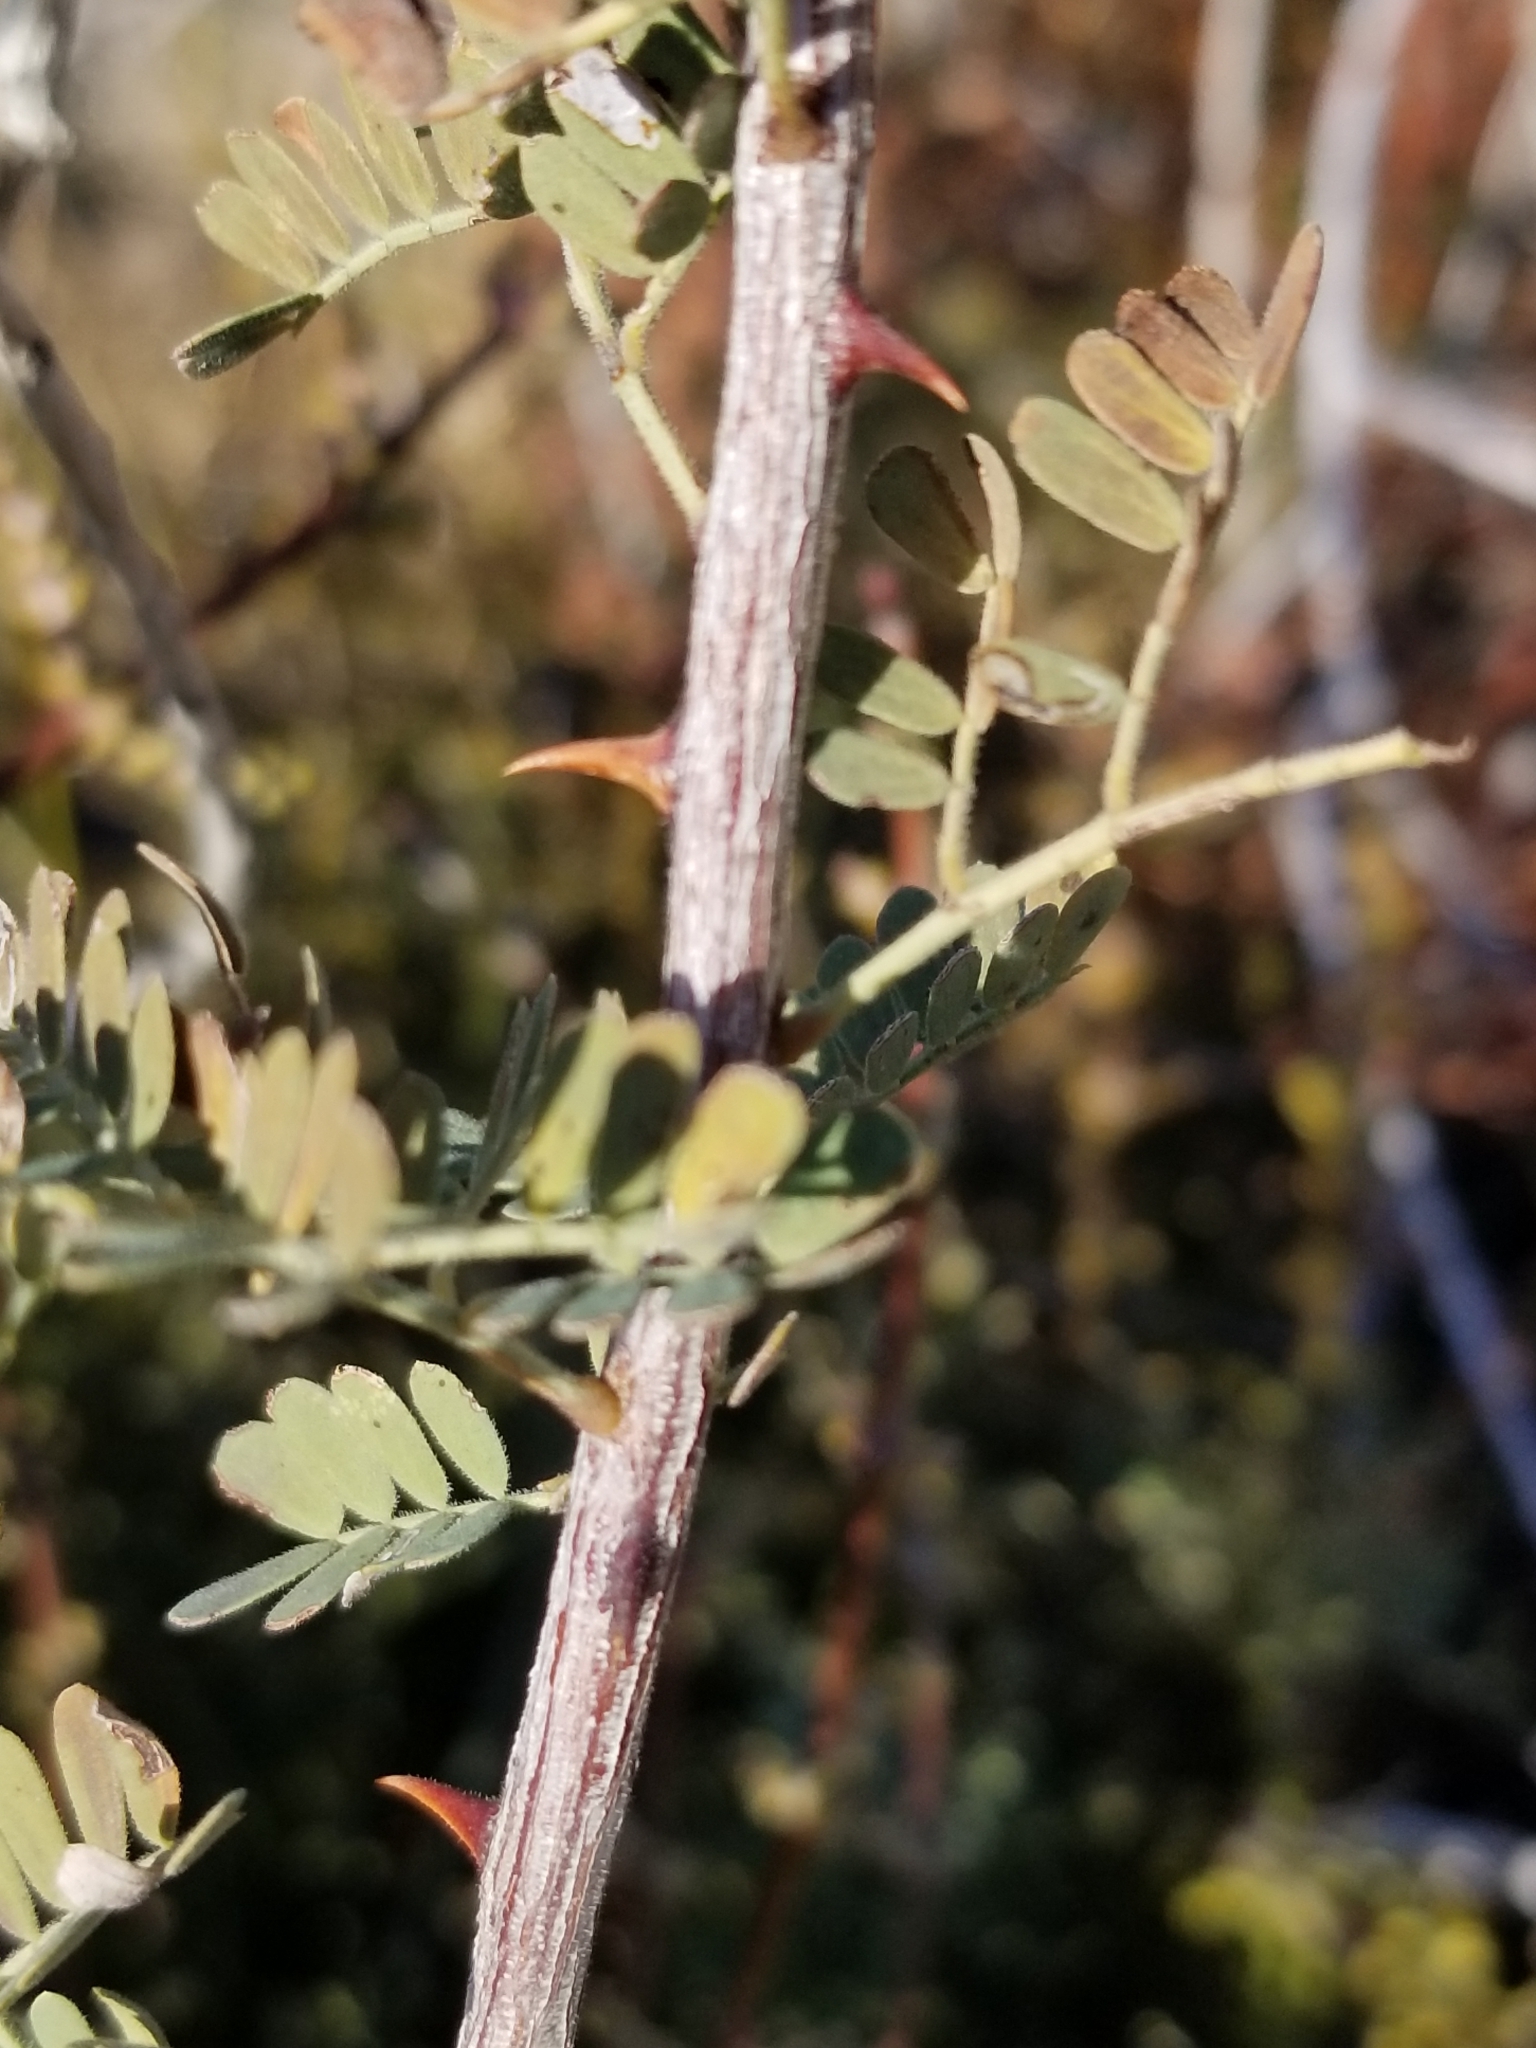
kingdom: Plantae
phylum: Tracheophyta
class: Magnoliopsida
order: Fabales
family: Fabaceae
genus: Senegalia
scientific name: Senegalia greggii
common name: Texas-mimosa
